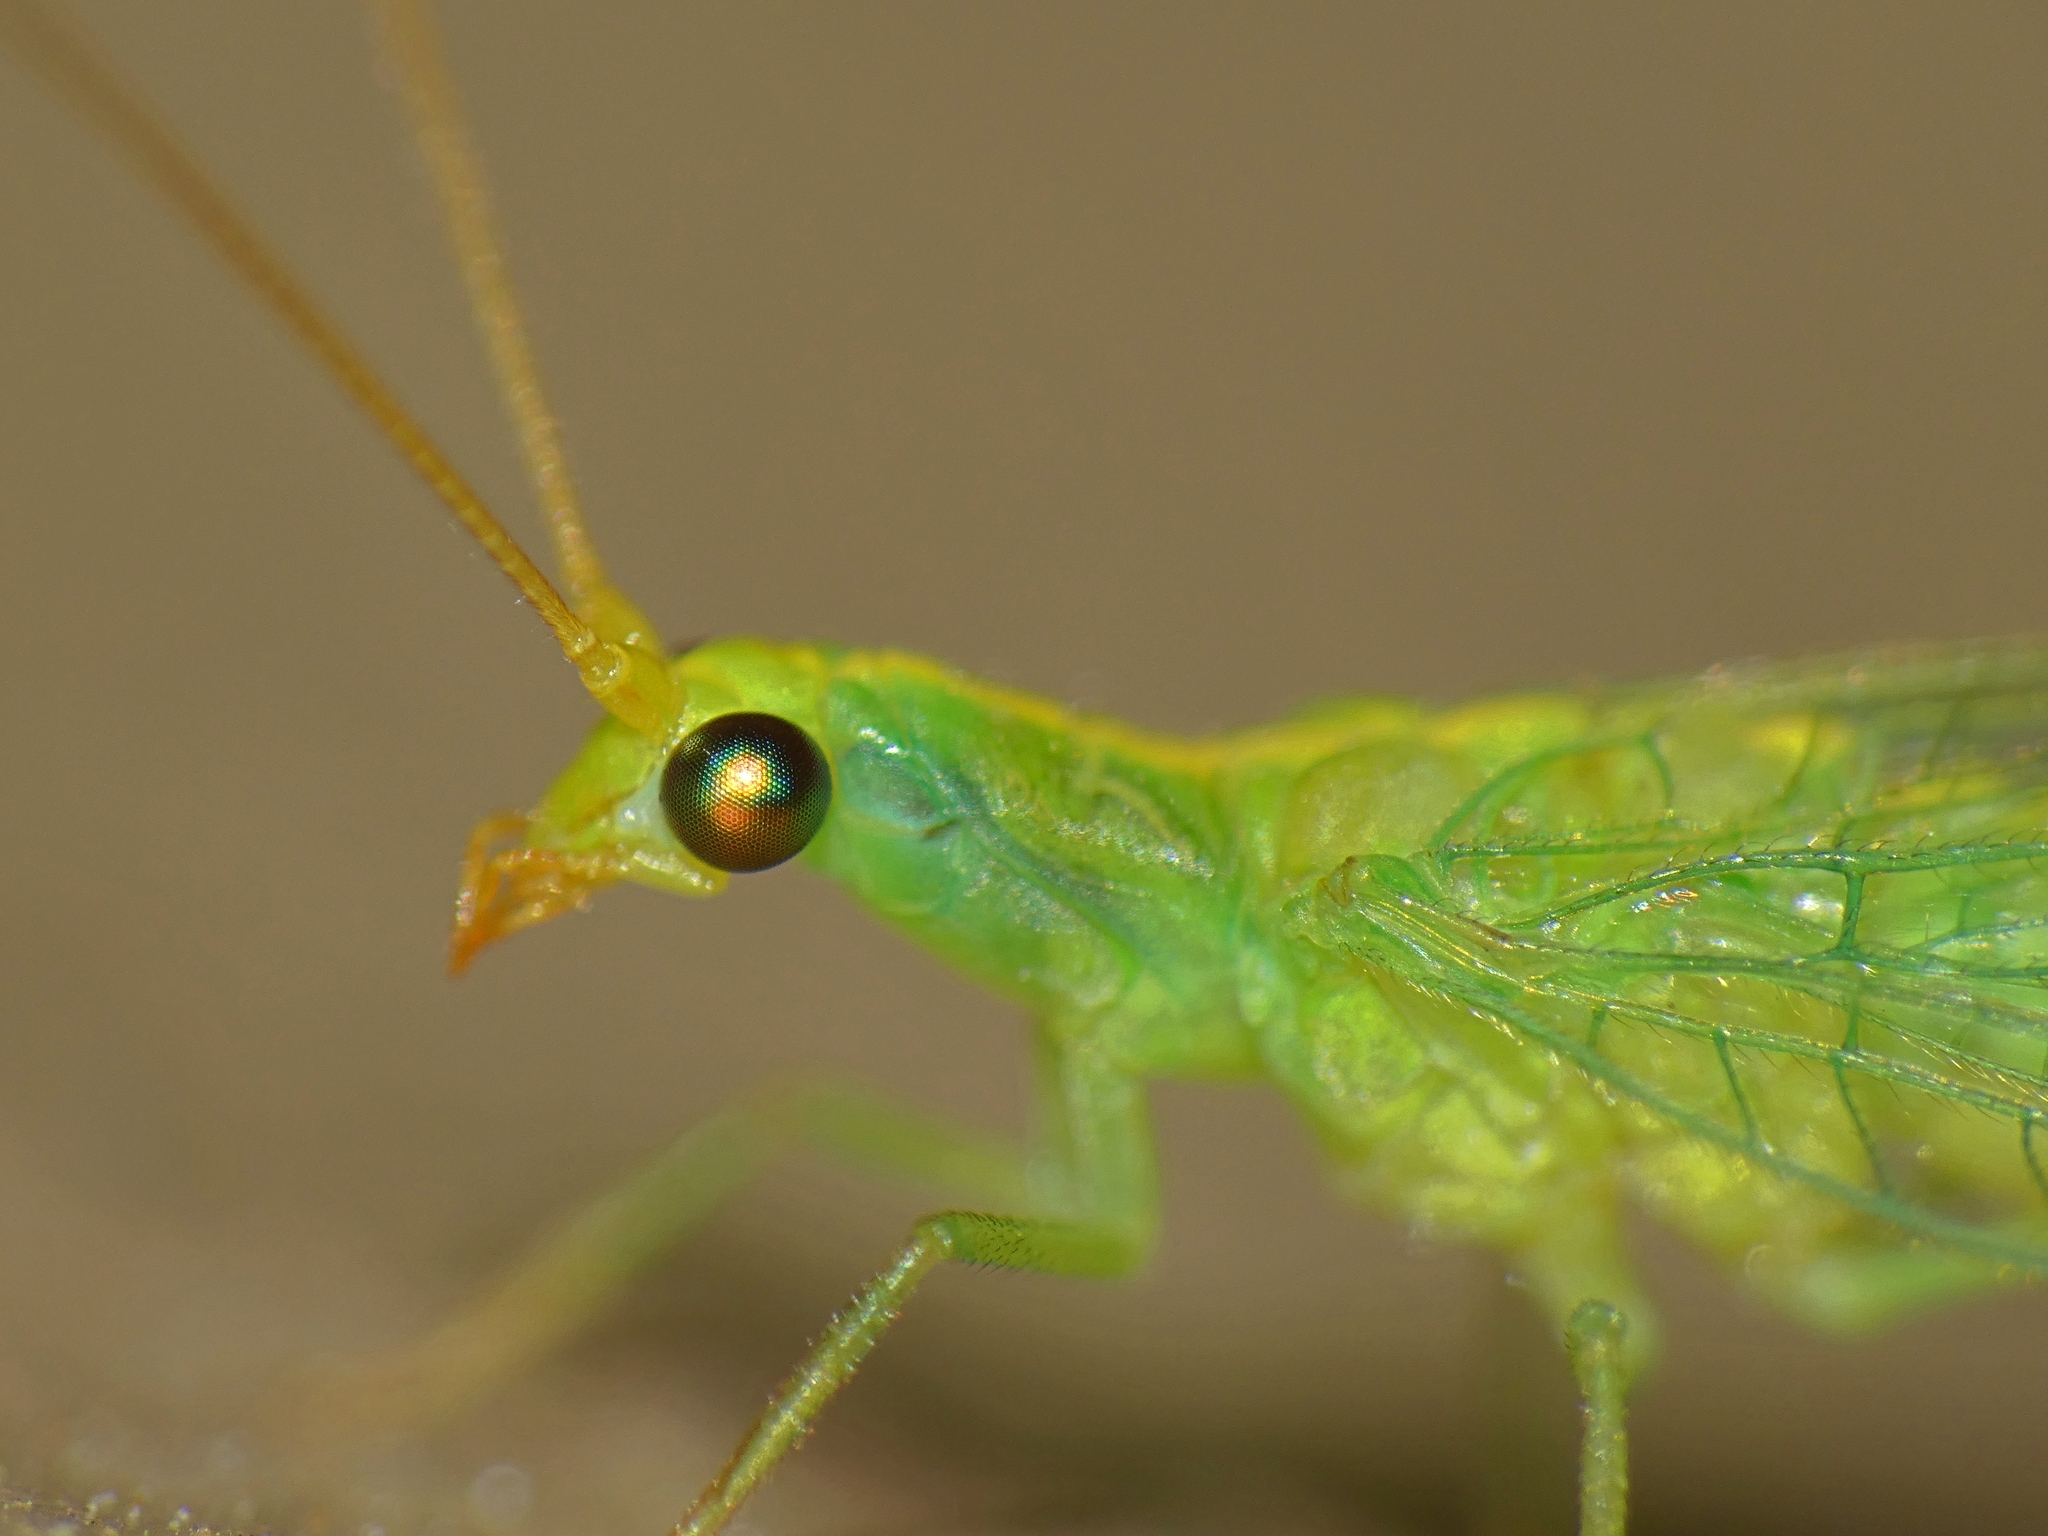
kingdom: Animalia
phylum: Arthropoda
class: Insecta
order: Neuroptera
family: Chrysopidae
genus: Chrysoperla
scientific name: Chrysoperla congrua
